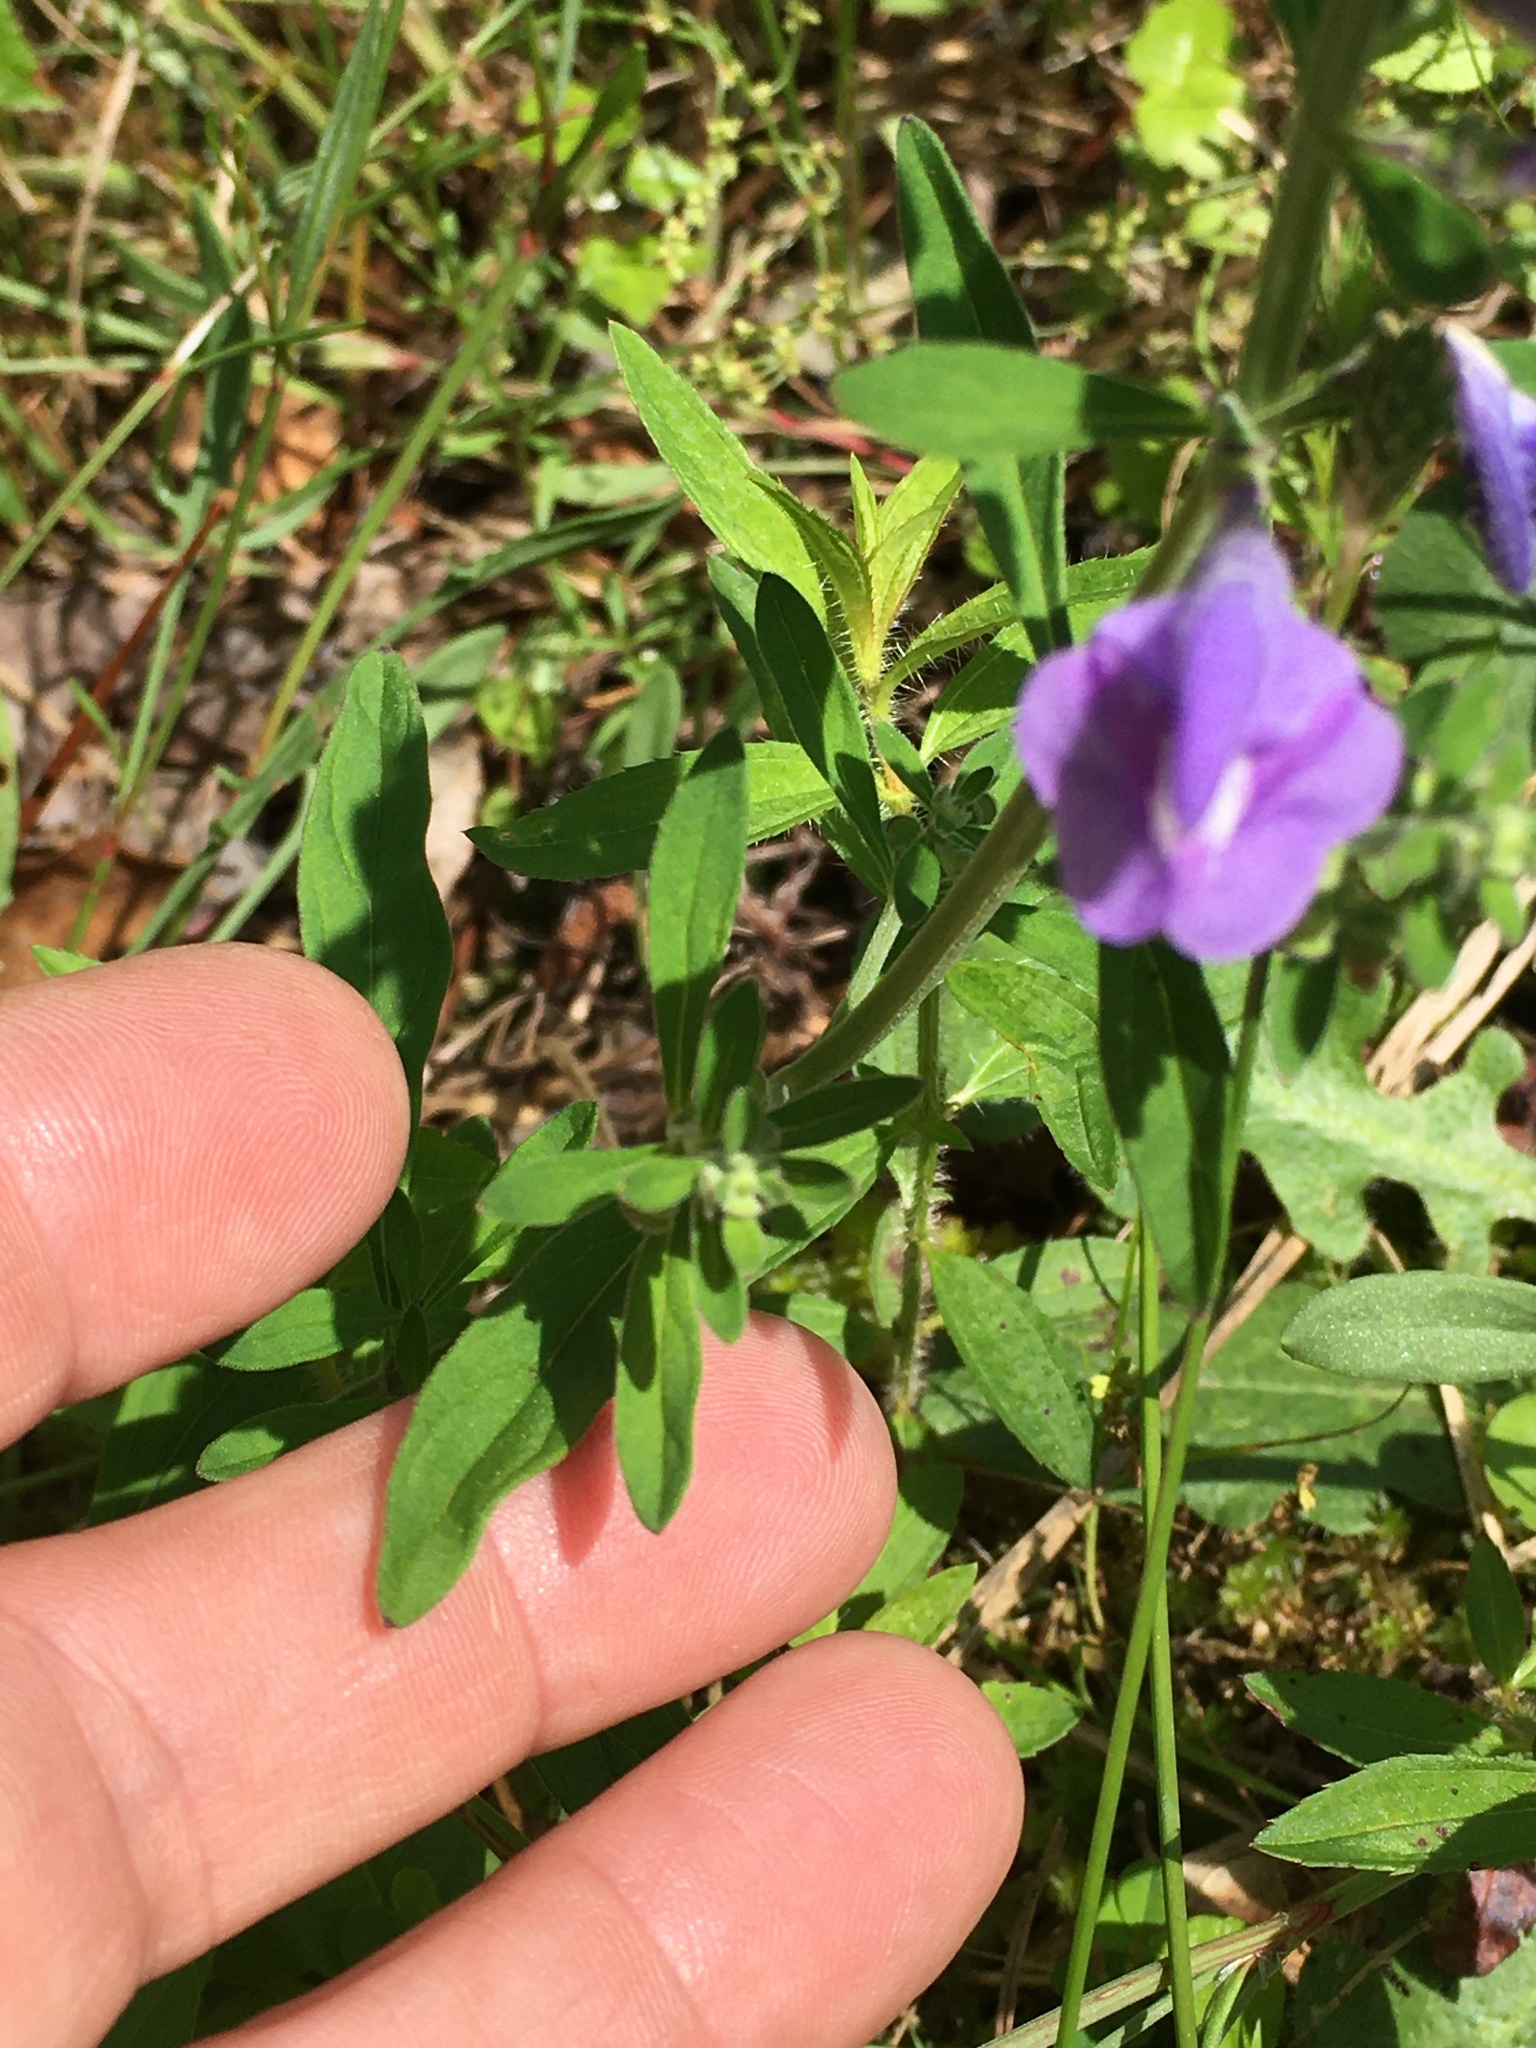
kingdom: Plantae
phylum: Tracheophyta
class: Magnoliopsida
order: Lamiales
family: Lamiaceae
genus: Scutellaria
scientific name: Scutellaria integrifolia
